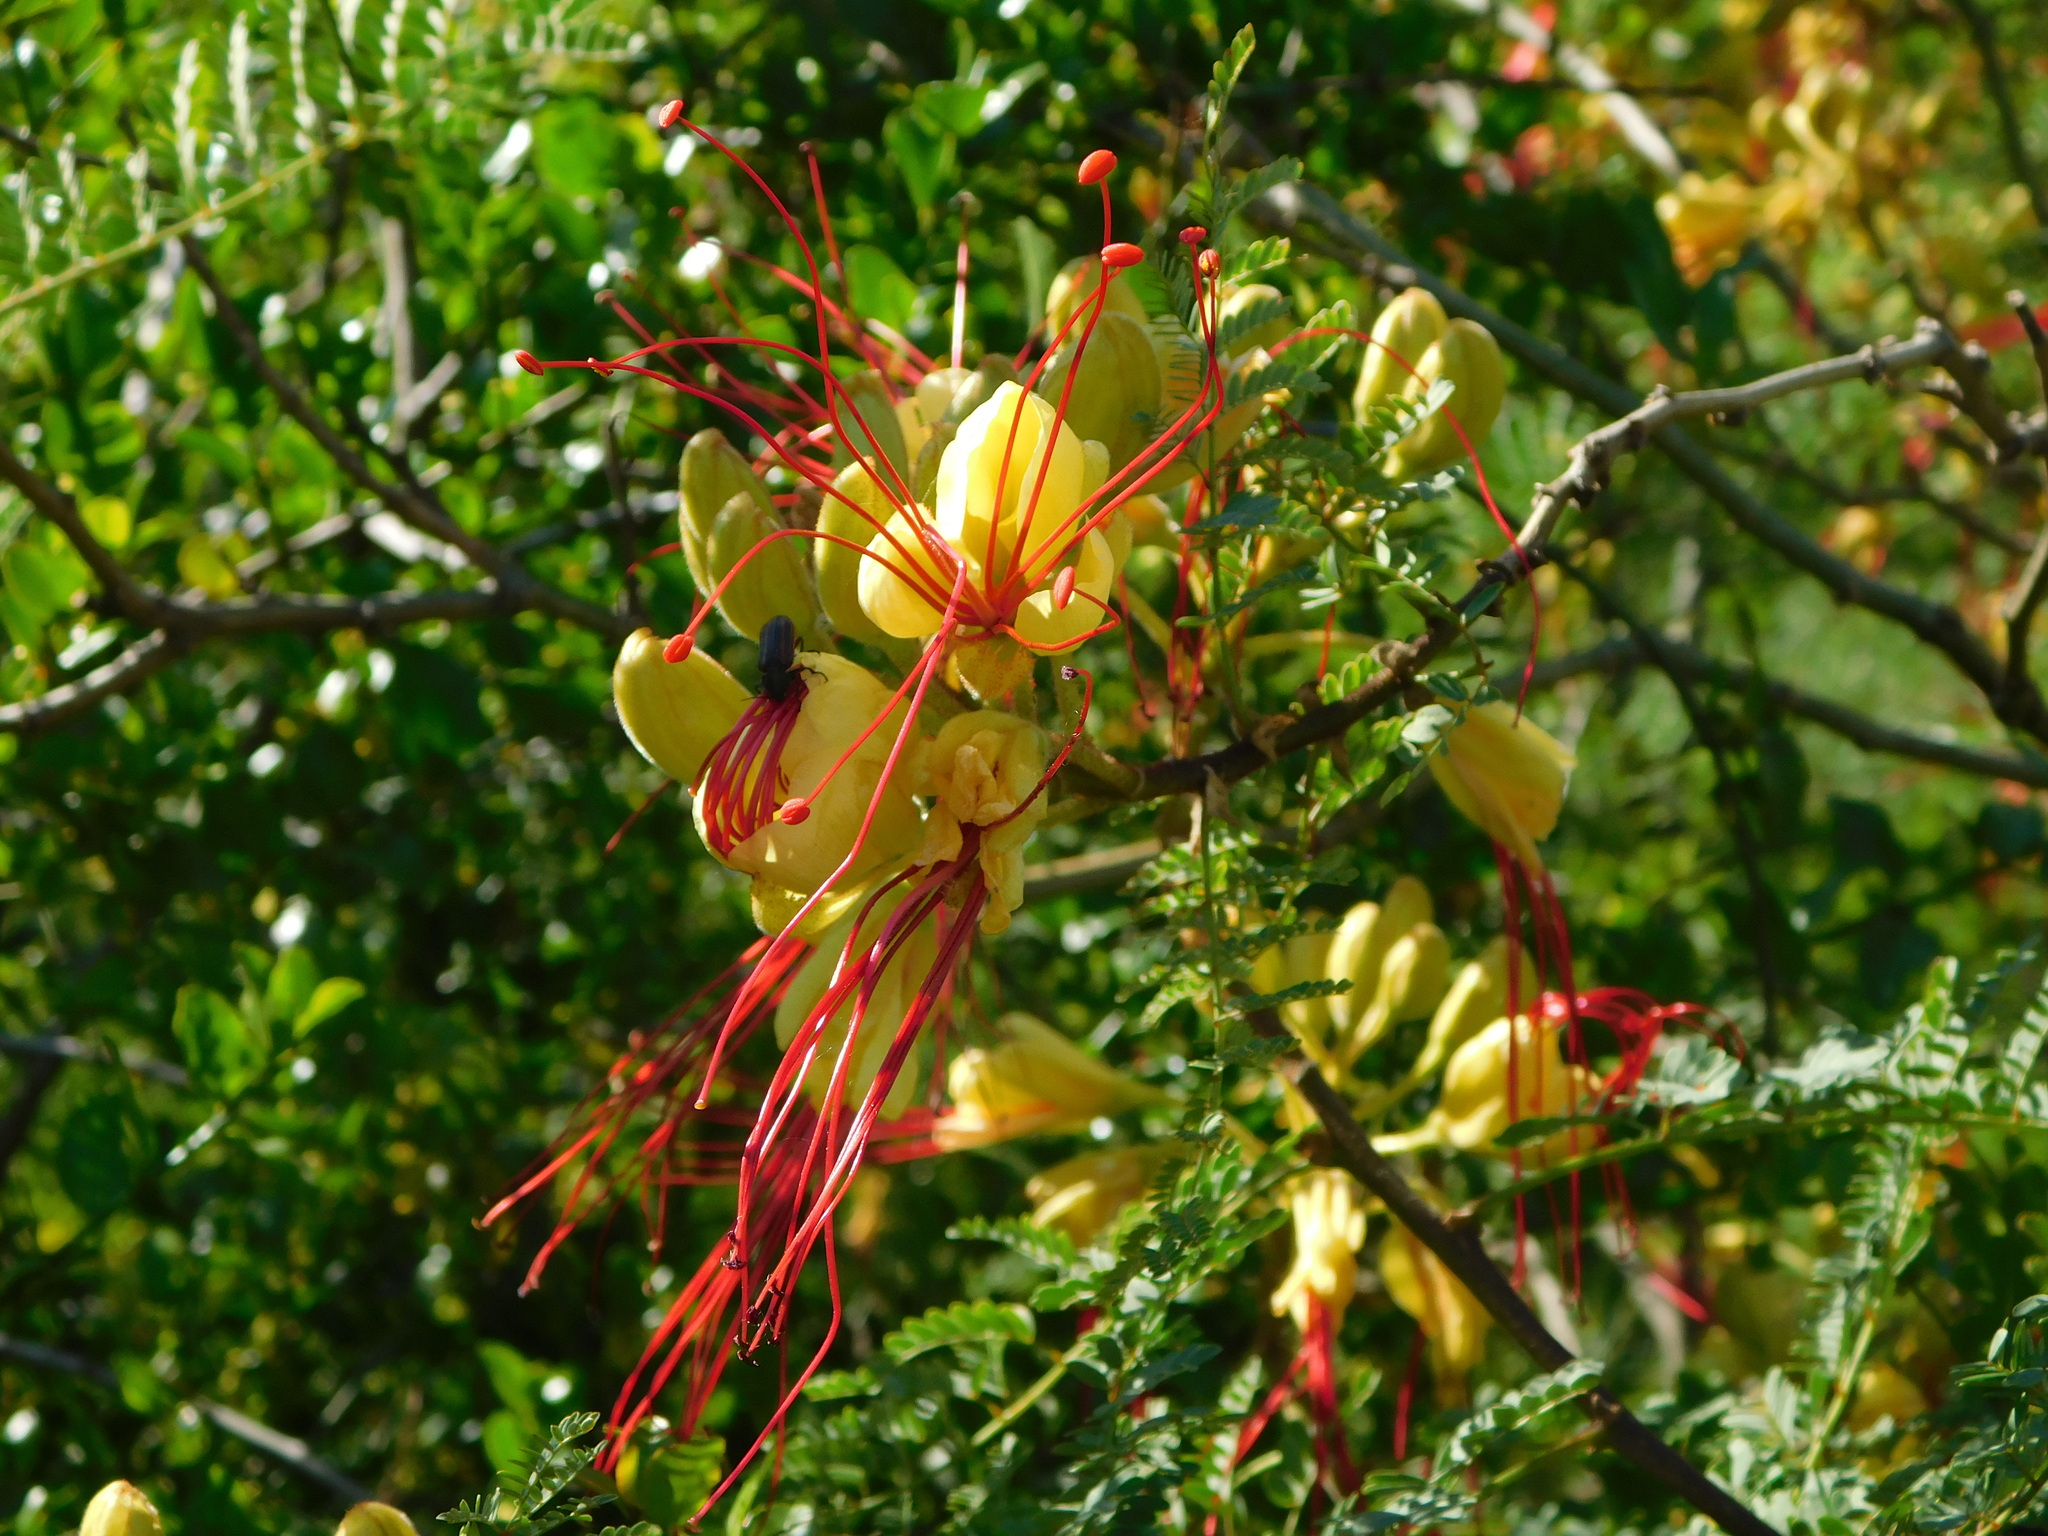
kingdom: Plantae
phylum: Tracheophyta
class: Magnoliopsida
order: Fabales
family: Fabaceae
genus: Erythrostemon
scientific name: Erythrostemon gilliesii
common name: Bird-of-paradise shrub
